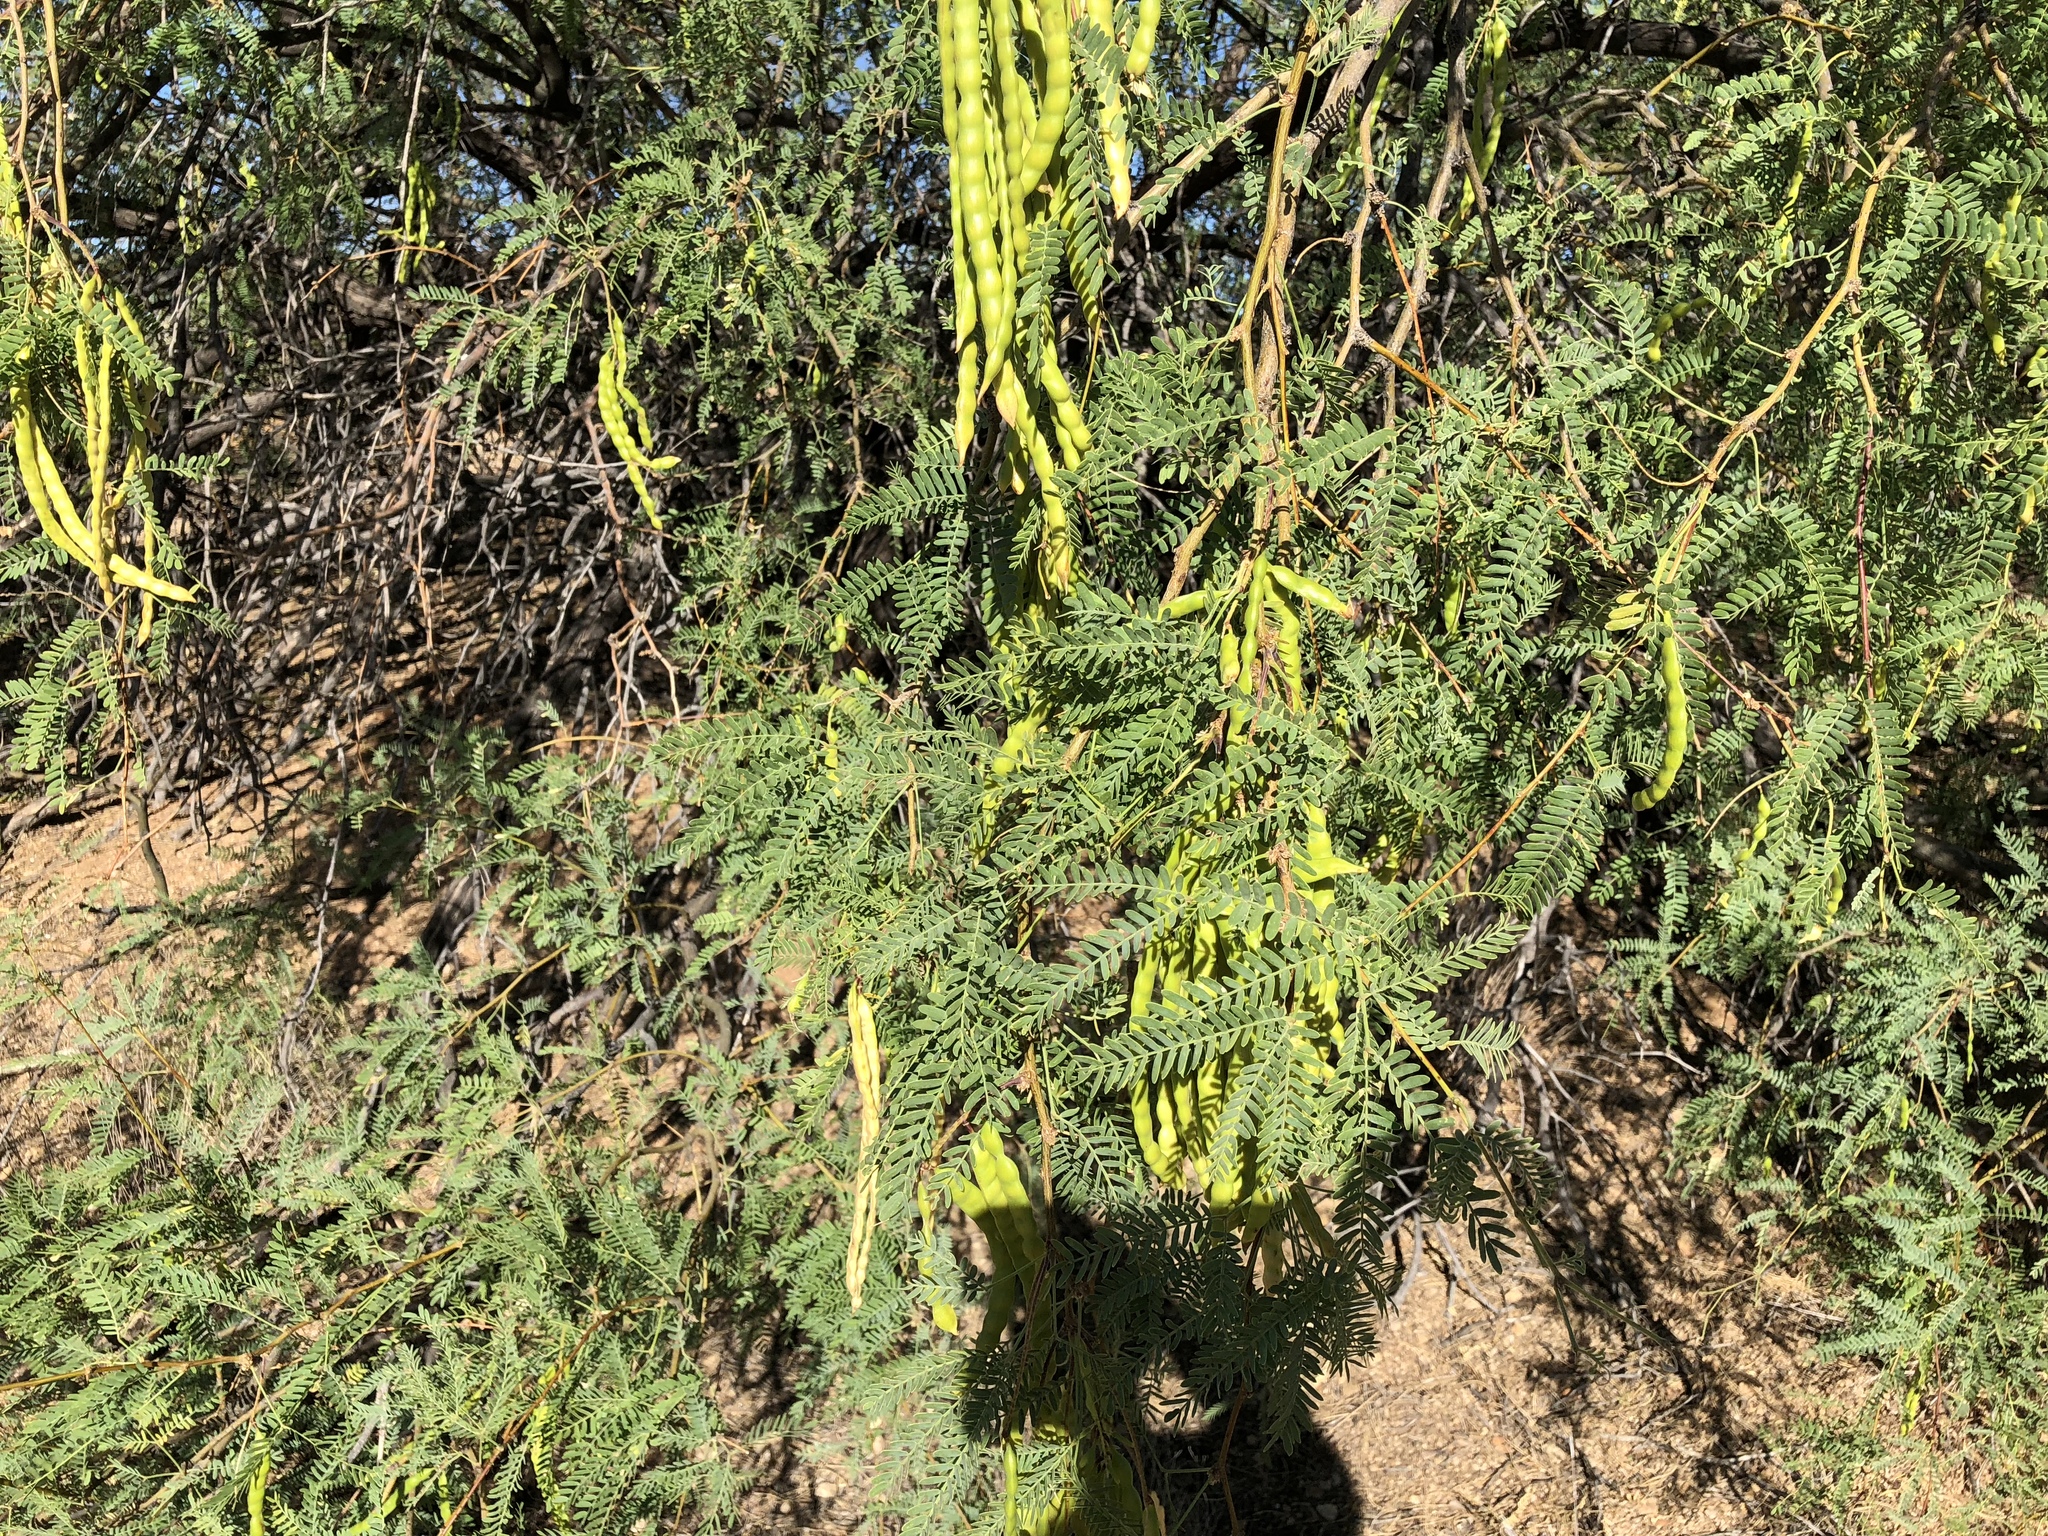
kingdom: Plantae
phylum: Tracheophyta
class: Magnoliopsida
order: Fabales
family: Fabaceae
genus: Prosopis
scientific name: Prosopis glandulosa
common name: Honey mesquite
